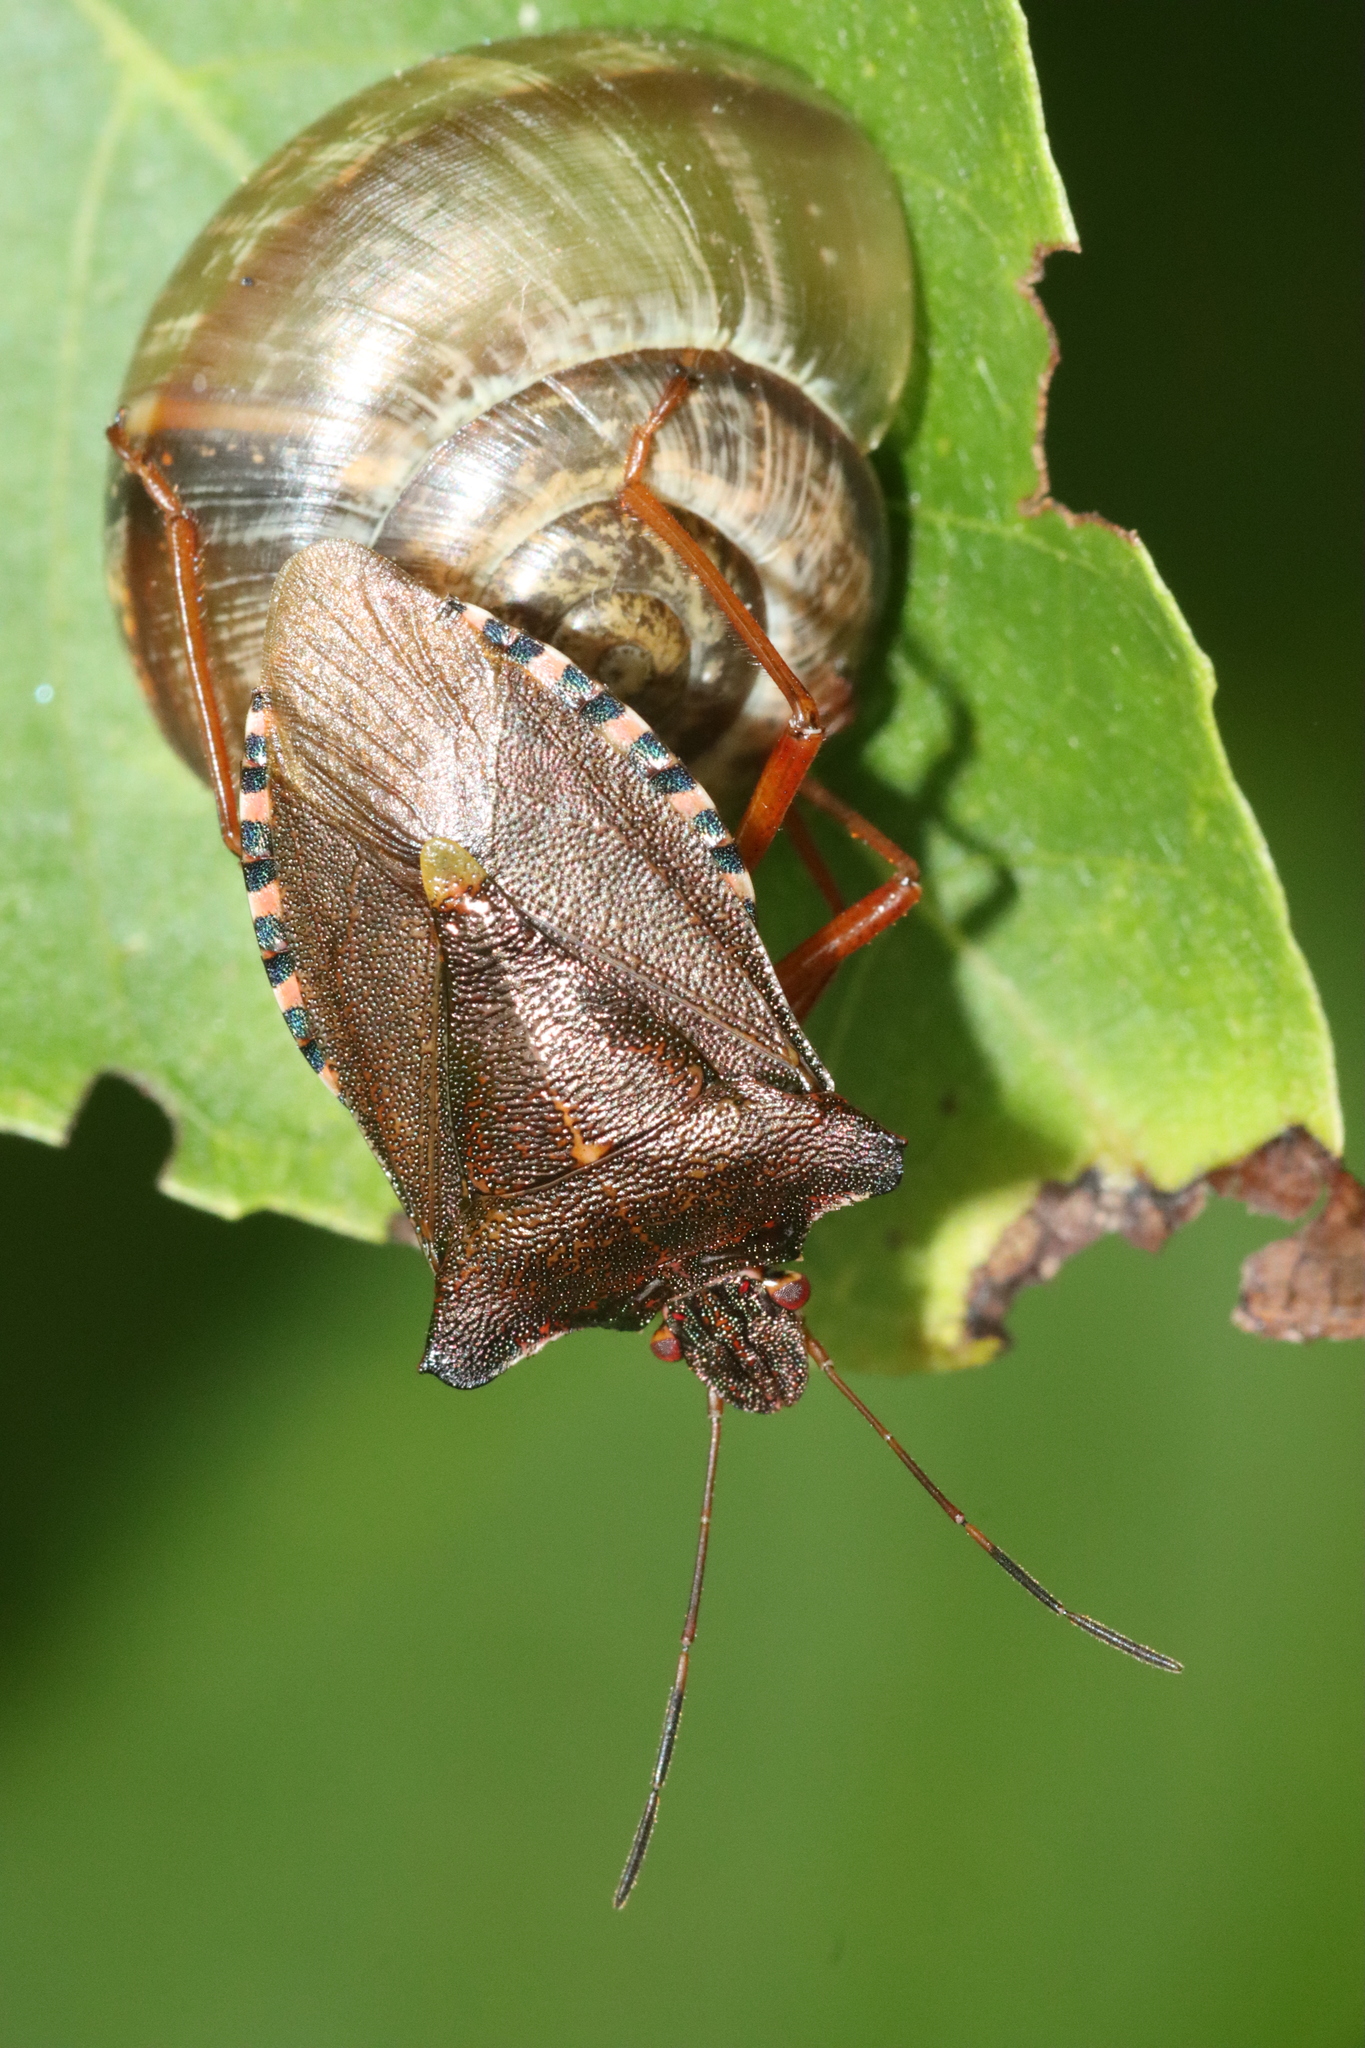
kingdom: Animalia
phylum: Arthropoda
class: Insecta
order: Hemiptera
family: Pentatomidae
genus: Pentatoma
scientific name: Pentatoma rufipes
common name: Forest bug
